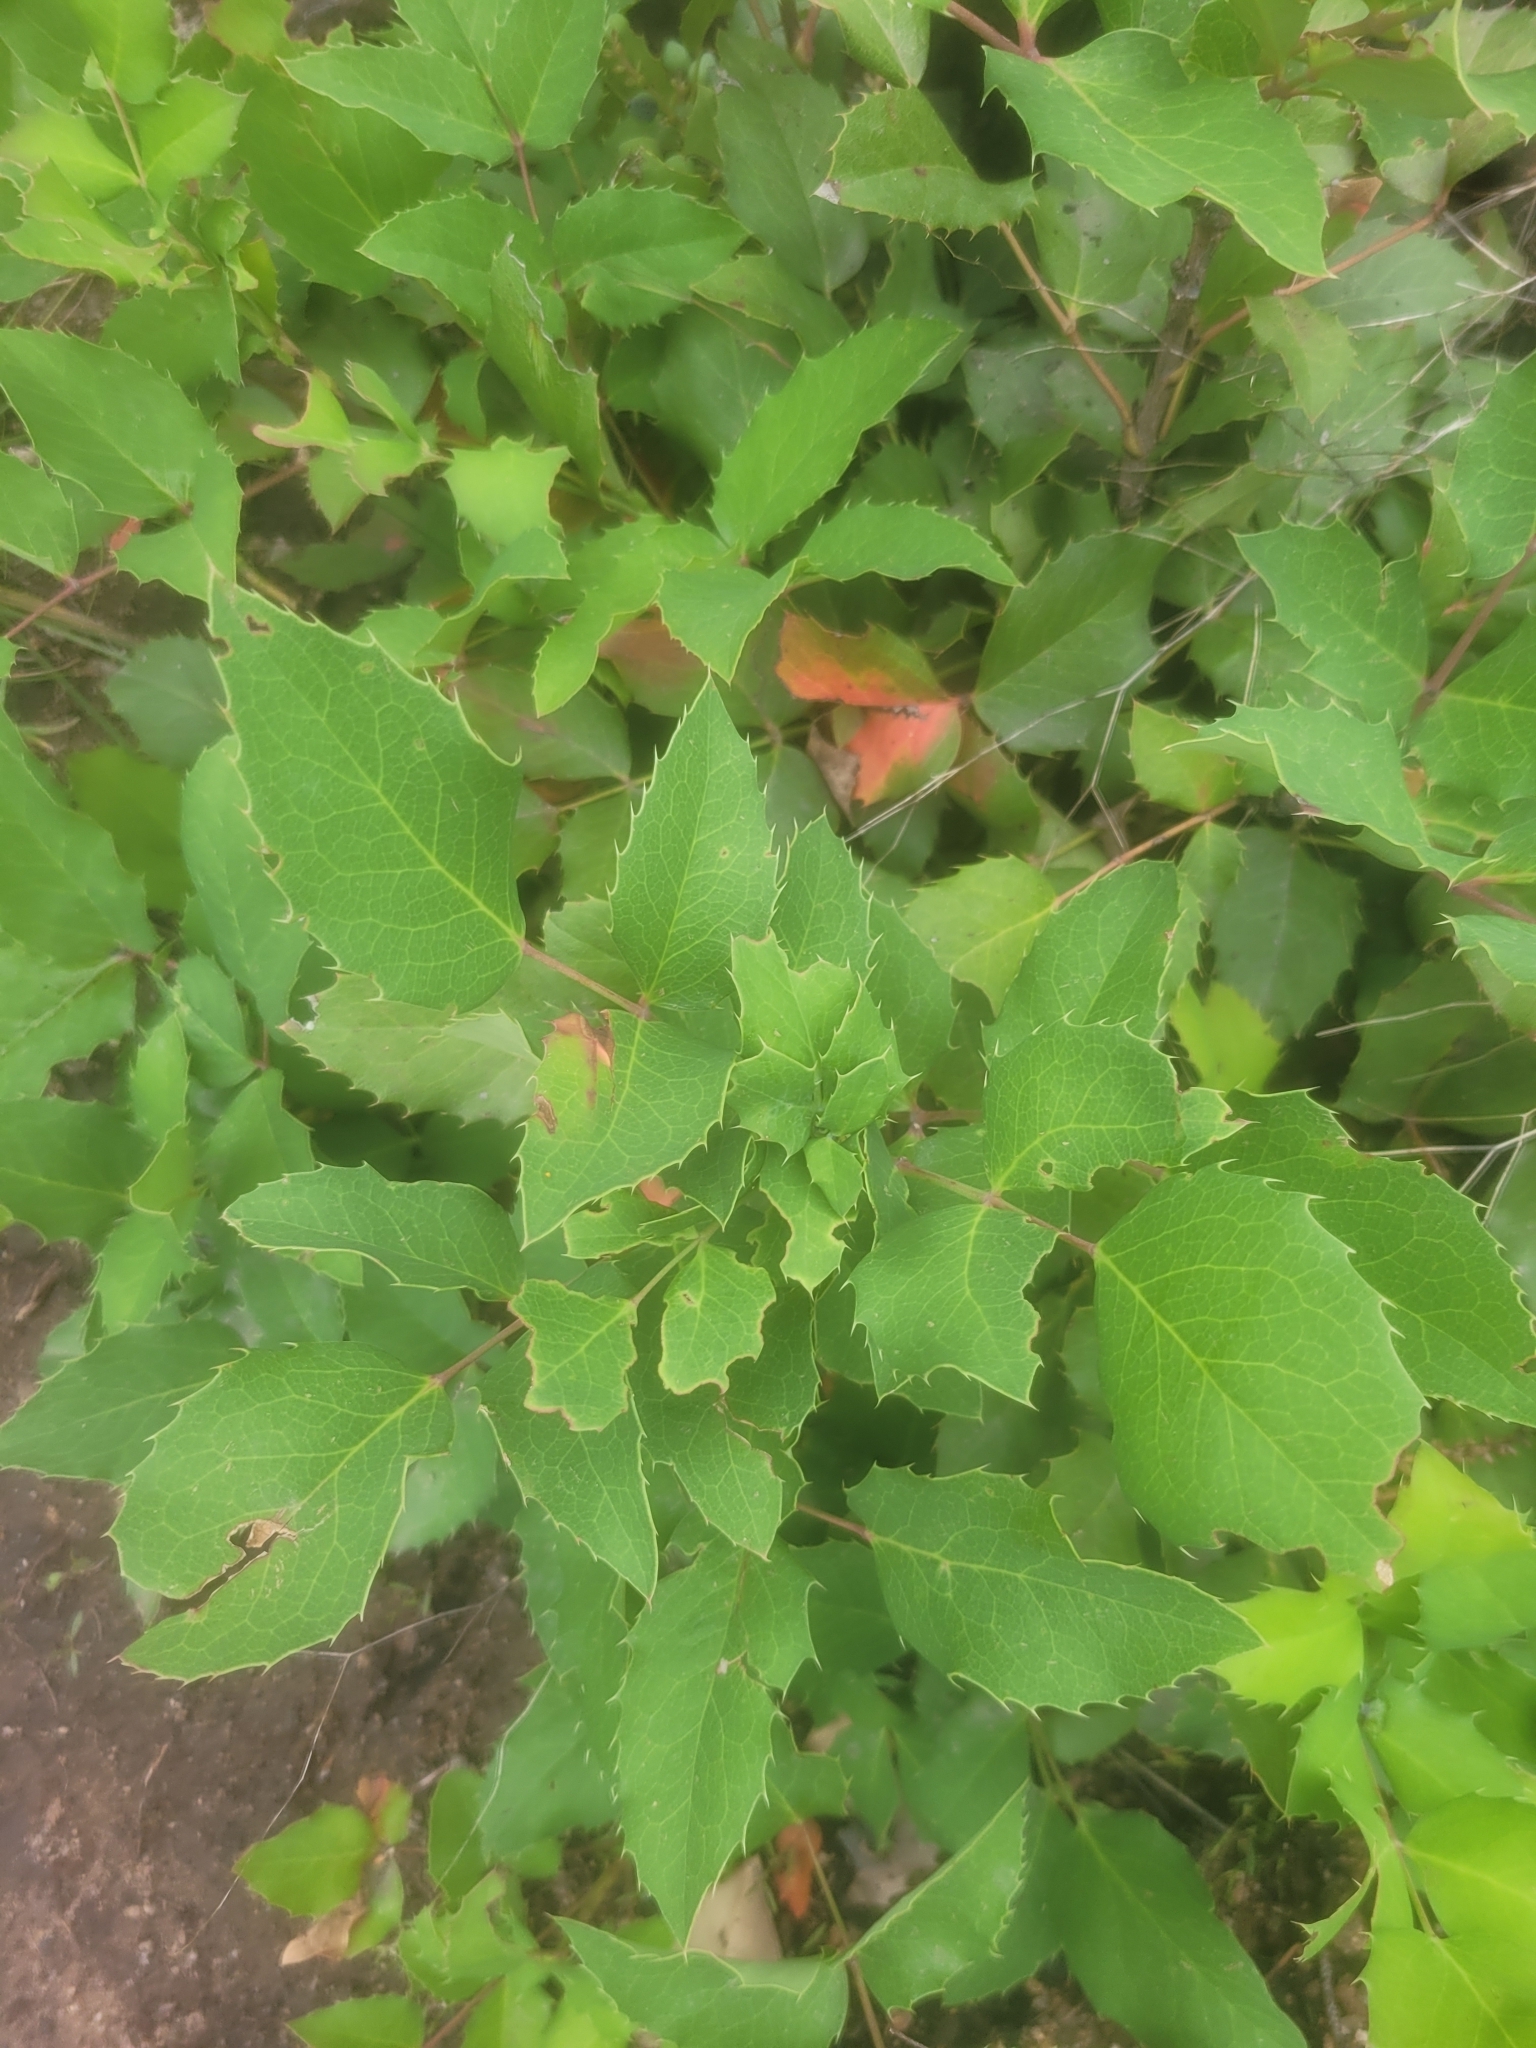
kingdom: Plantae
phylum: Tracheophyta
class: Magnoliopsida
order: Ranunculales
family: Berberidaceae
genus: Mahonia
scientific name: Mahonia repens
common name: Creeping oregon-grape
